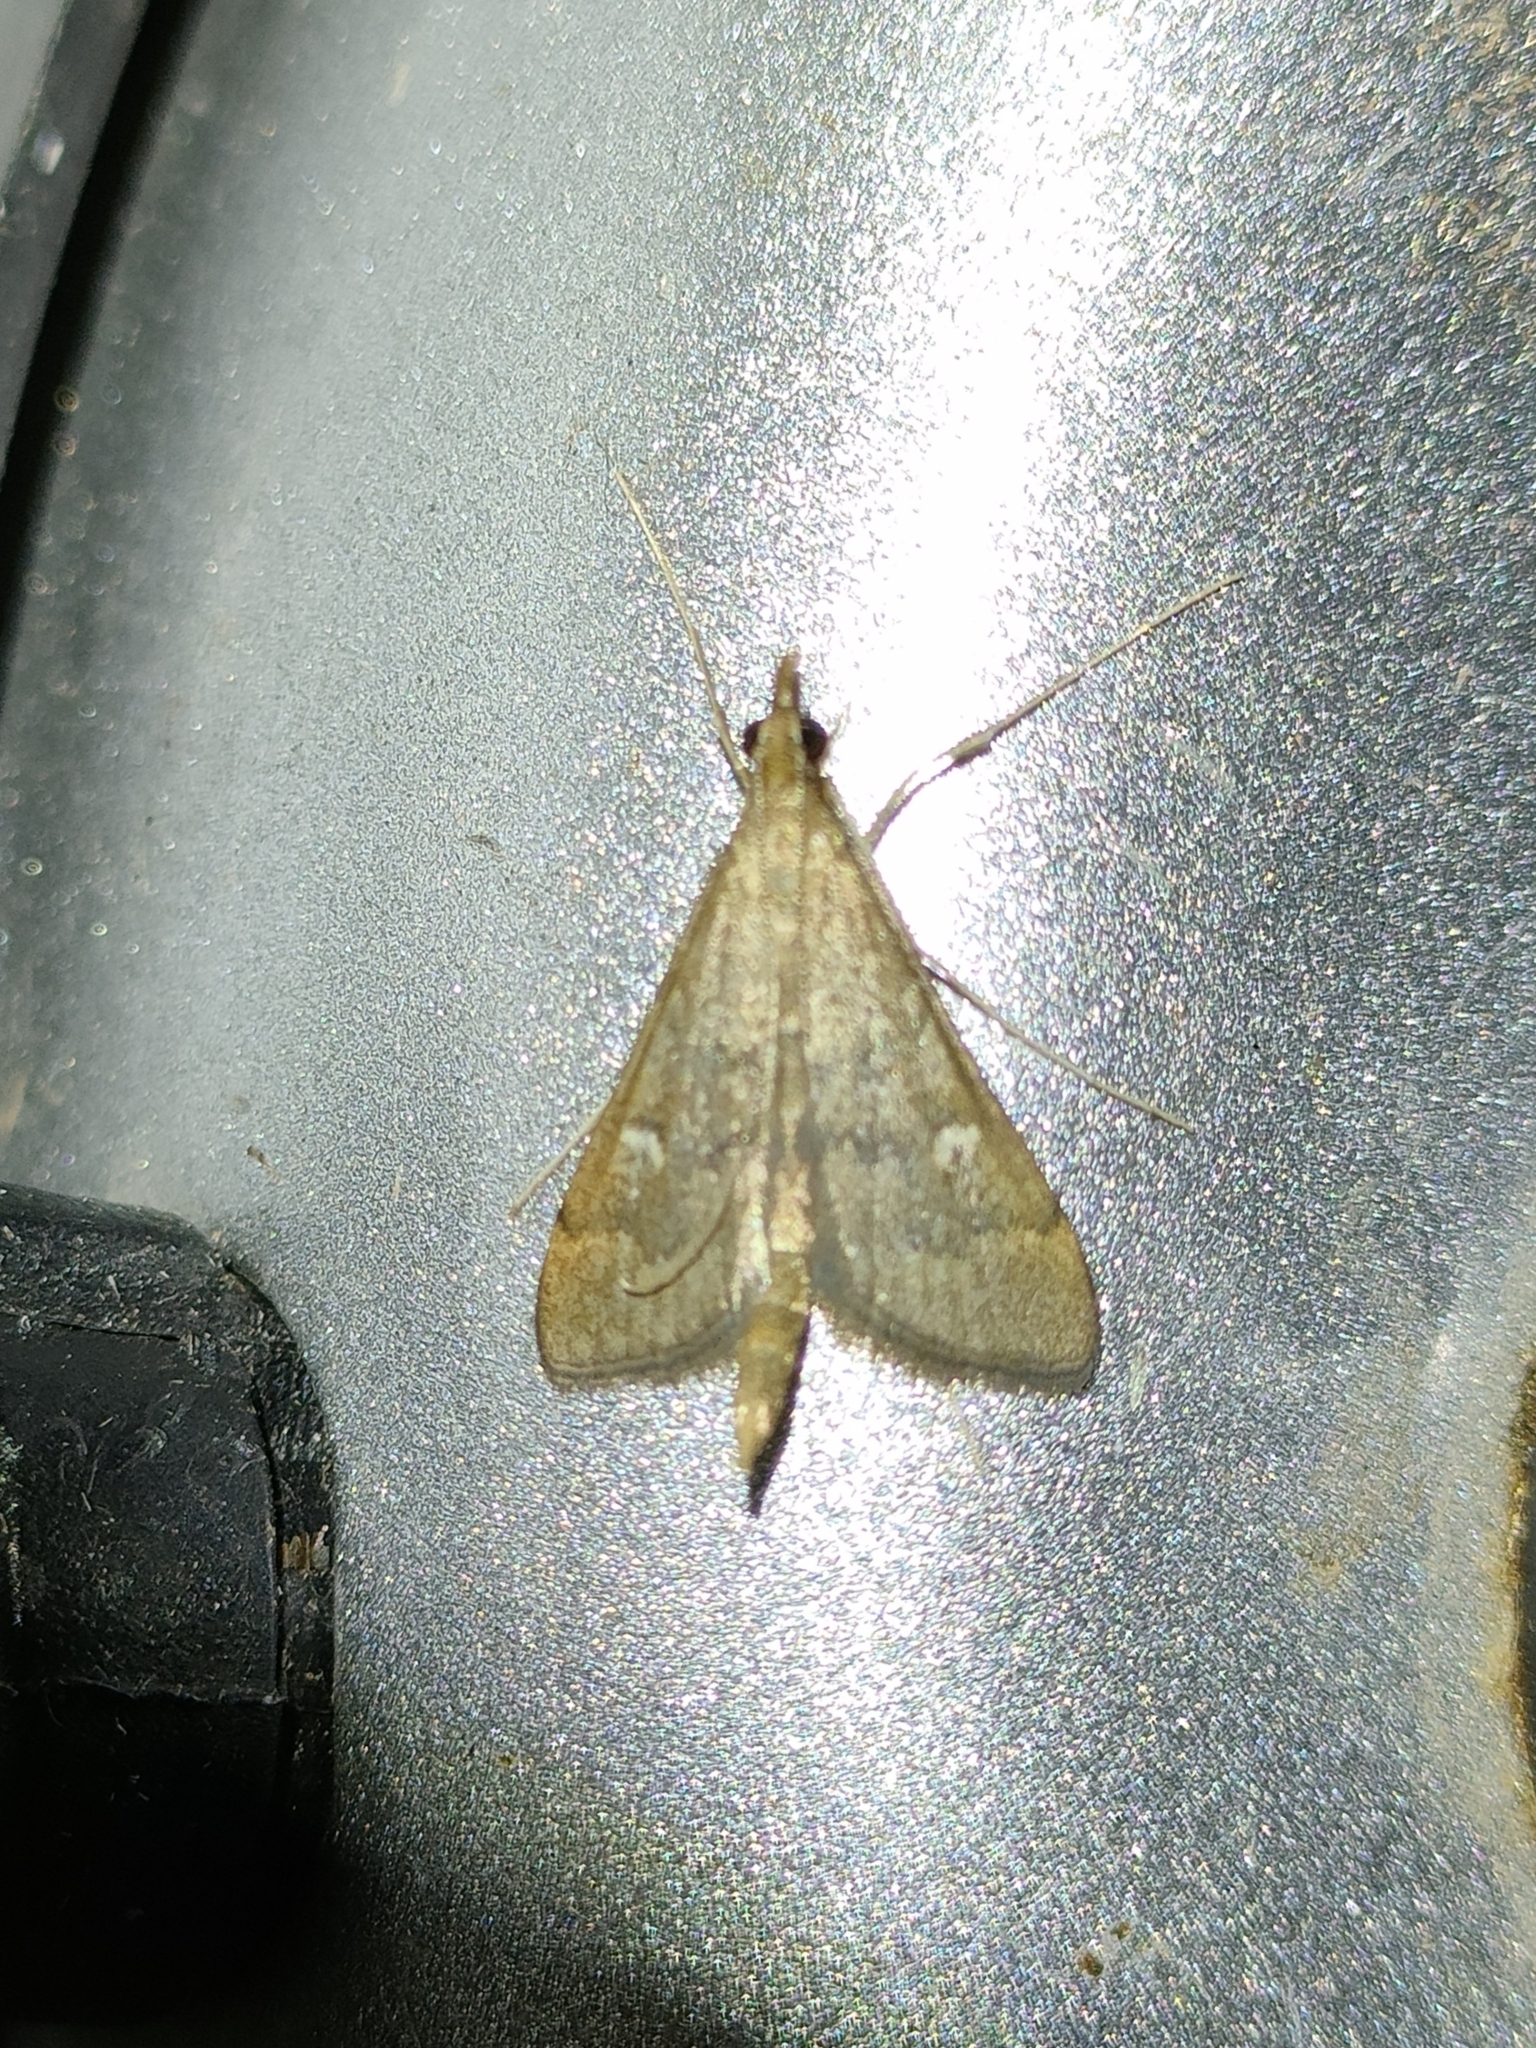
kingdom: Animalia
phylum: Arthropoda
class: Insecta
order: Lepidoptera
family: Crambidae
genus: Stenia
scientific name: Stenia Dolicharthria punctalis
